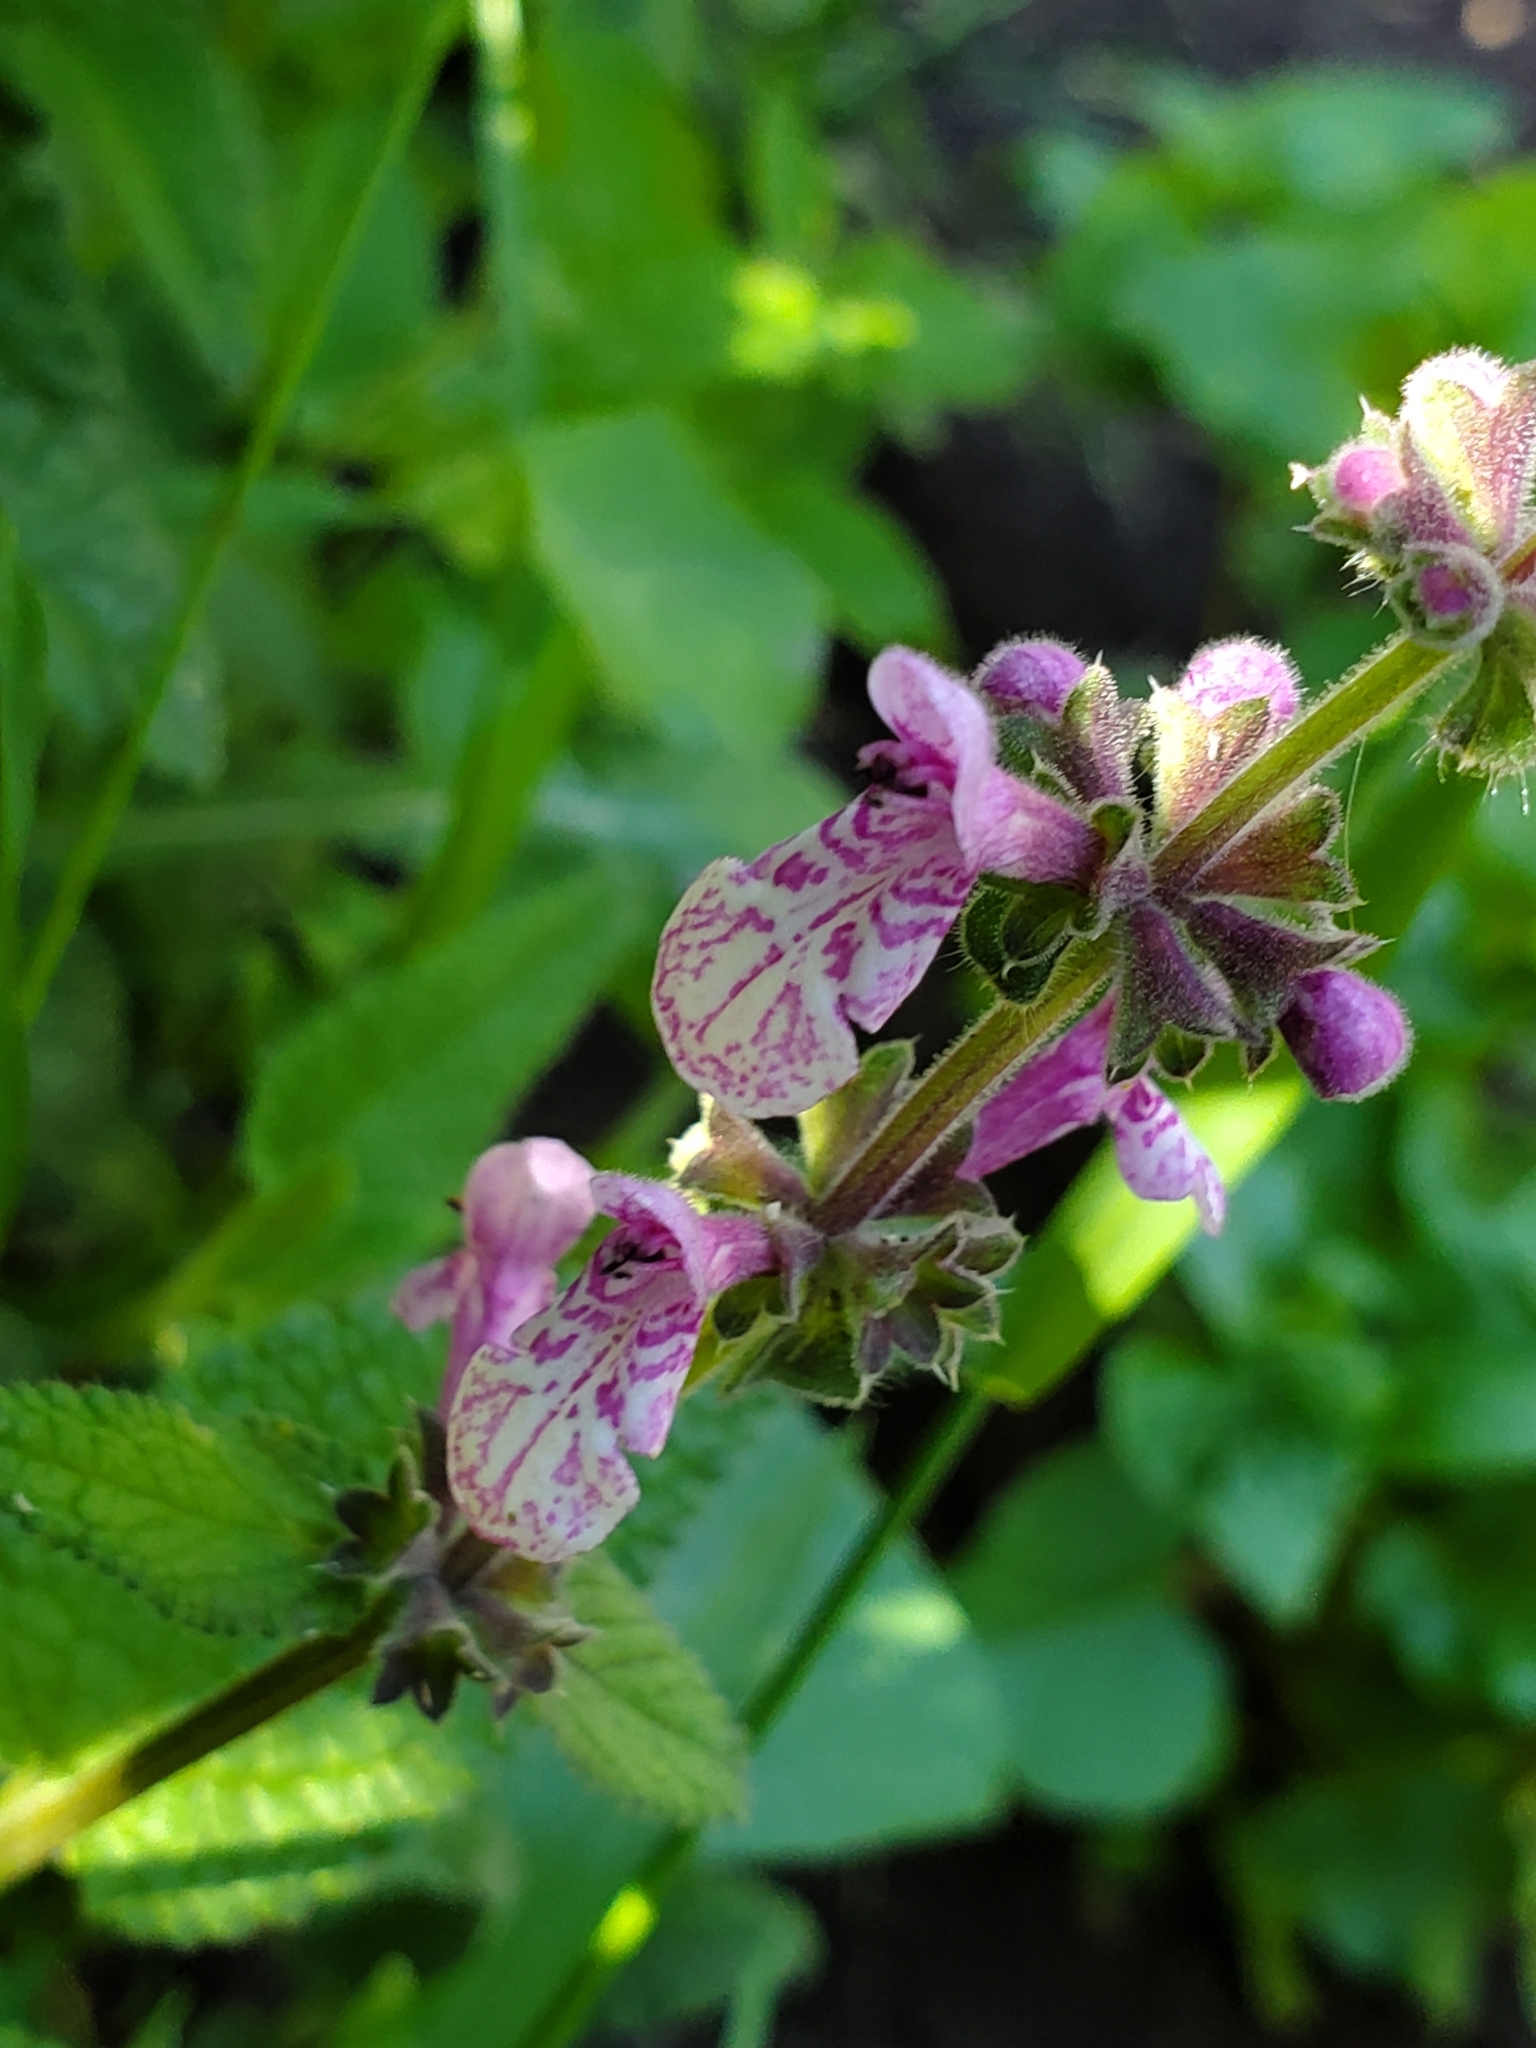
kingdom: Plantae
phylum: Tracheophyta
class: Magnoliopsida
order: Lamiales
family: Lamiaceae
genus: Stachys
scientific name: Stachys bullata
